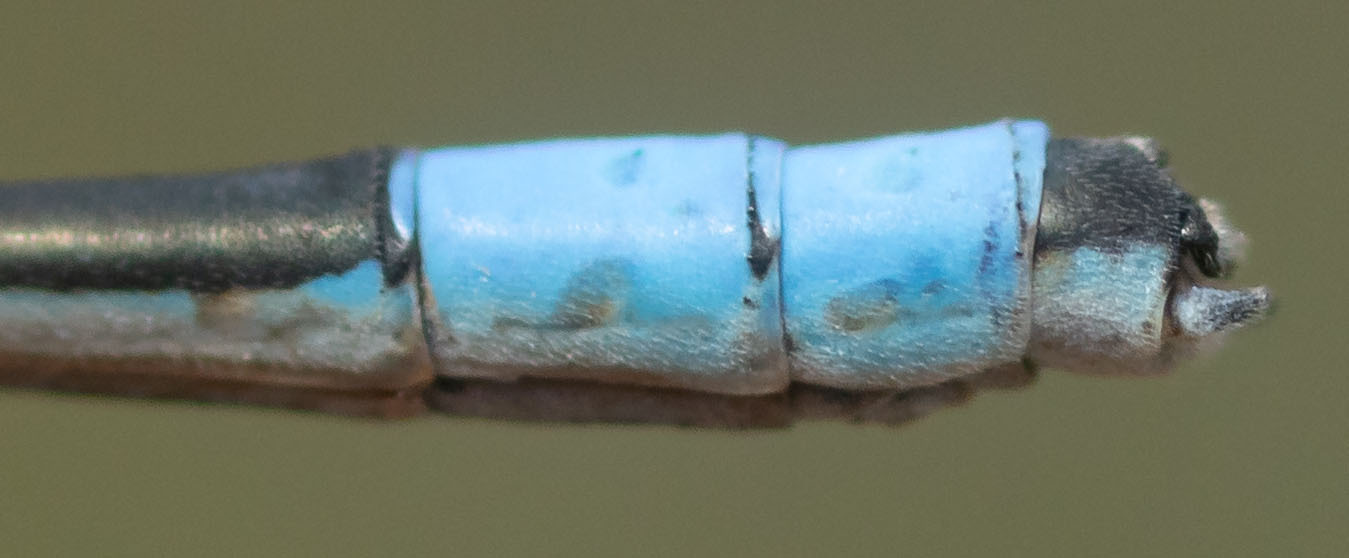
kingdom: Animalia
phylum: Arthropoda
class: Insecta
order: Odonata
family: Coenagrionidae
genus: Enallagma
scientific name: Enallagma annexum
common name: Northern bluet
